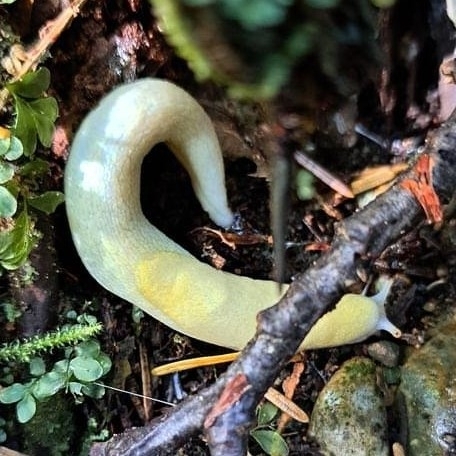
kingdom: Animalia
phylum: Mollusca
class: Gastropoda
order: Stylommatophora
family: Ariolimacidae
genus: Prophysaon
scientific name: Prophysaon foliolatum
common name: Yellow-bordered taildropper
